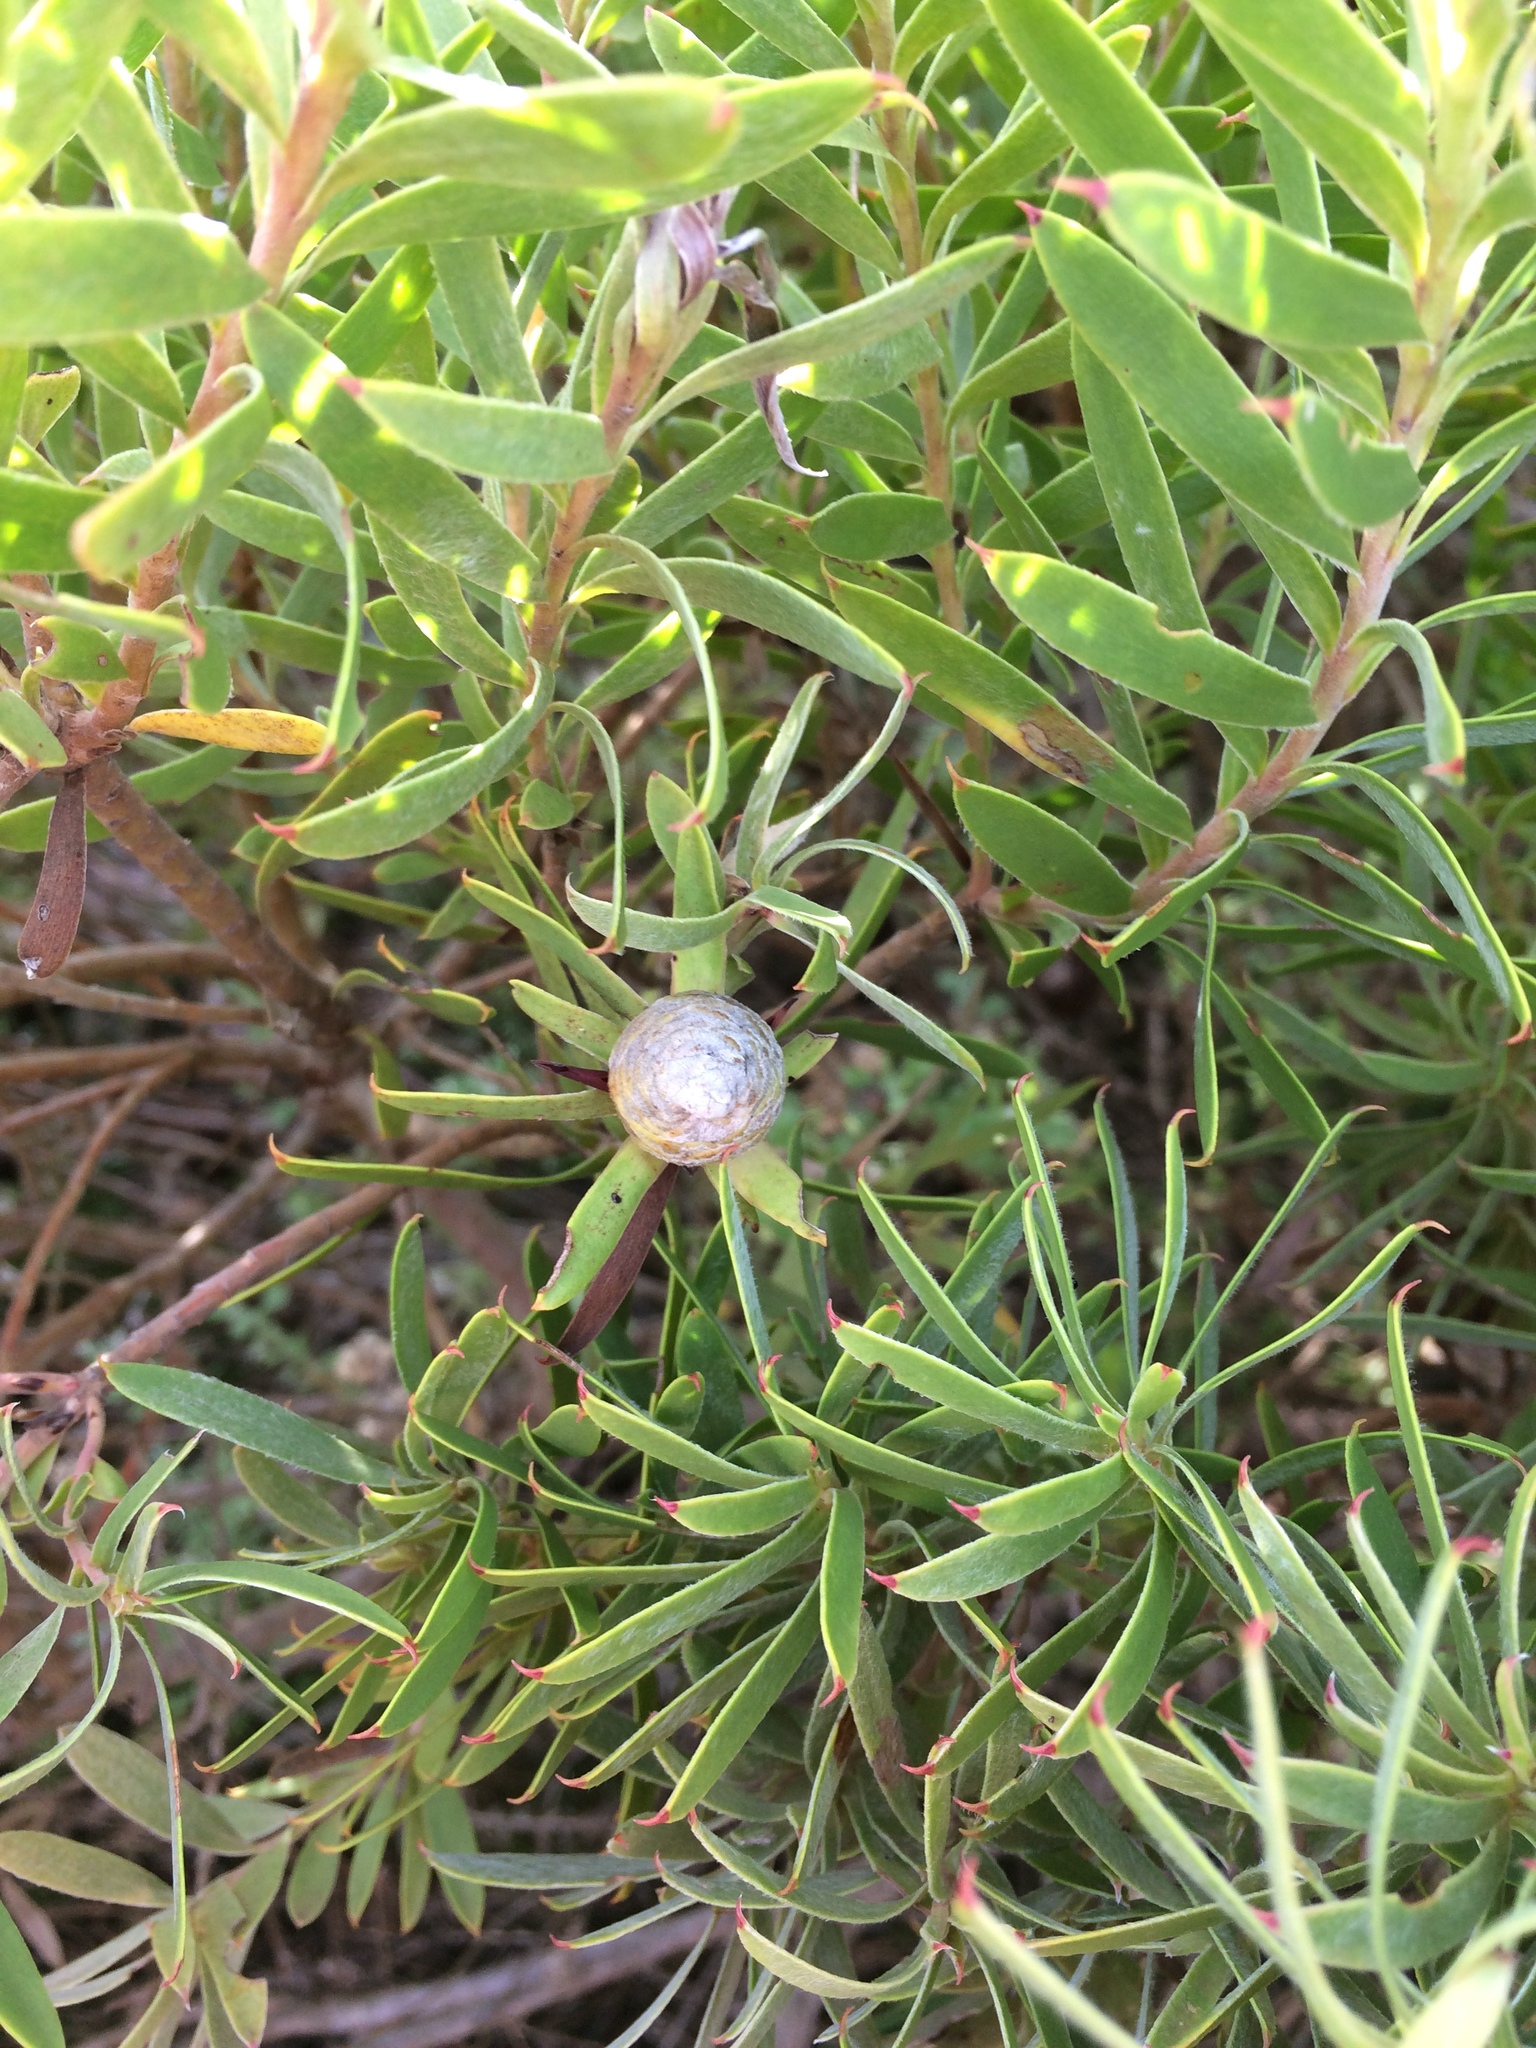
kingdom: Plantae
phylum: Tracheophyta
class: Magnoliopsida
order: Proteales
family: Proteaceae
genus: Leucadendron
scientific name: Leucadendron coniferum
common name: Dune conebush
